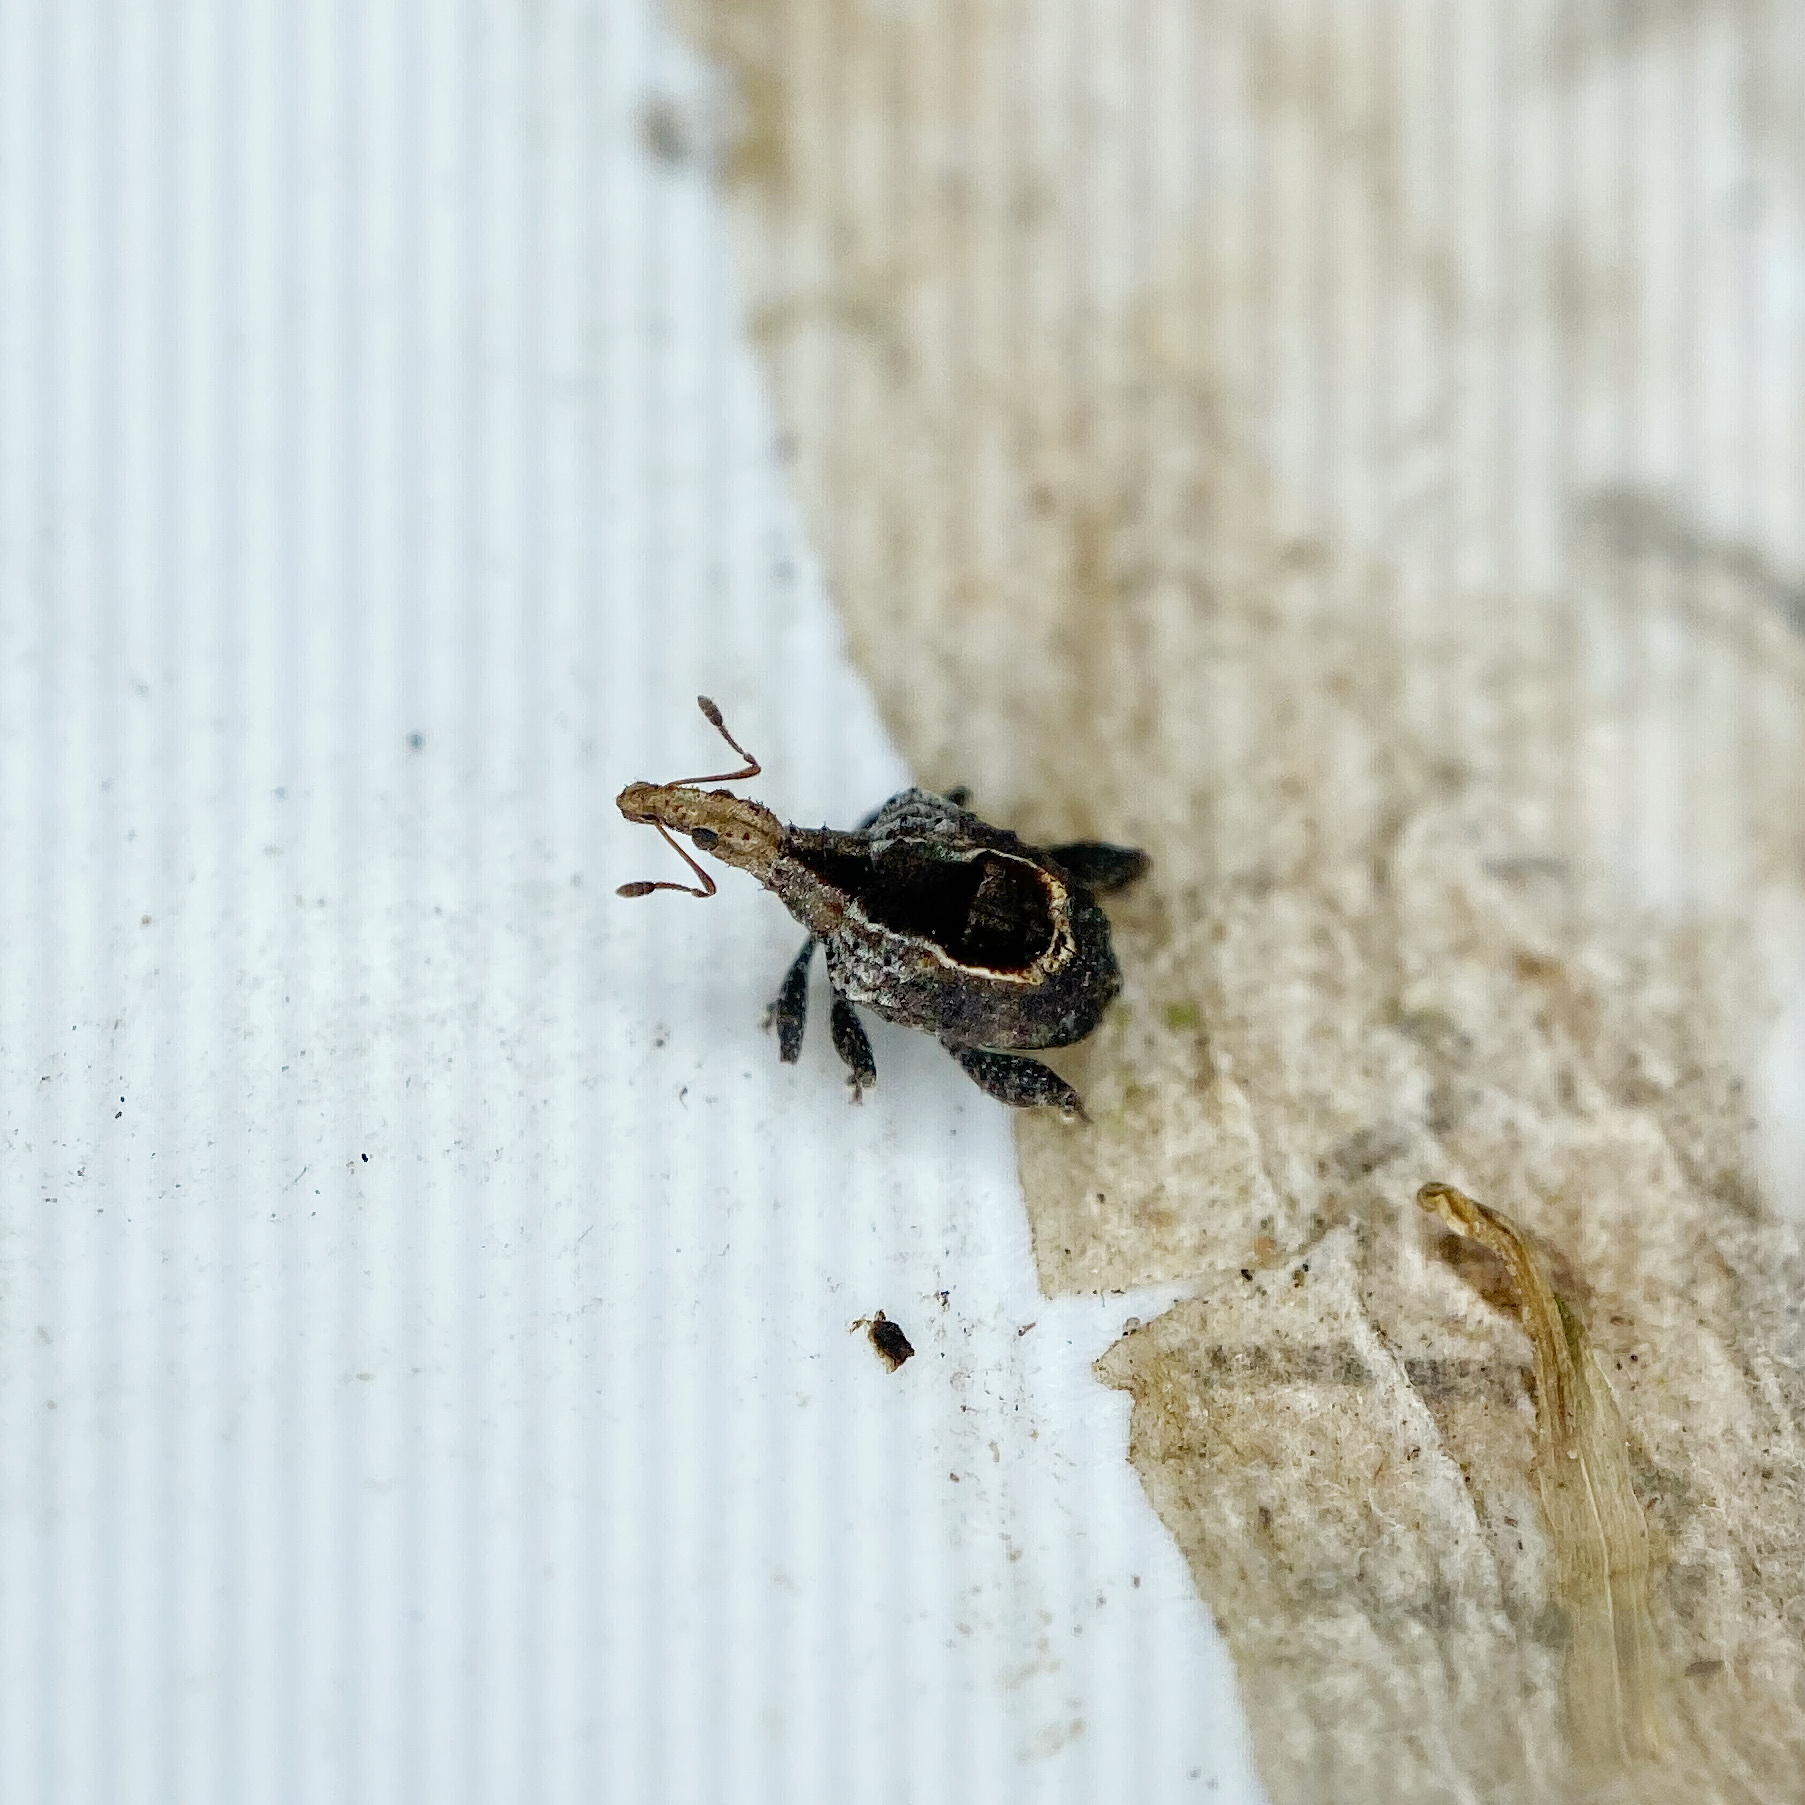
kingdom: Animalia
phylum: Arthropoda
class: Insecta
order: Coleoptera
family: Curculionidae
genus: Stephanorrhynchus
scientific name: Stephanorrhynchus crassus
